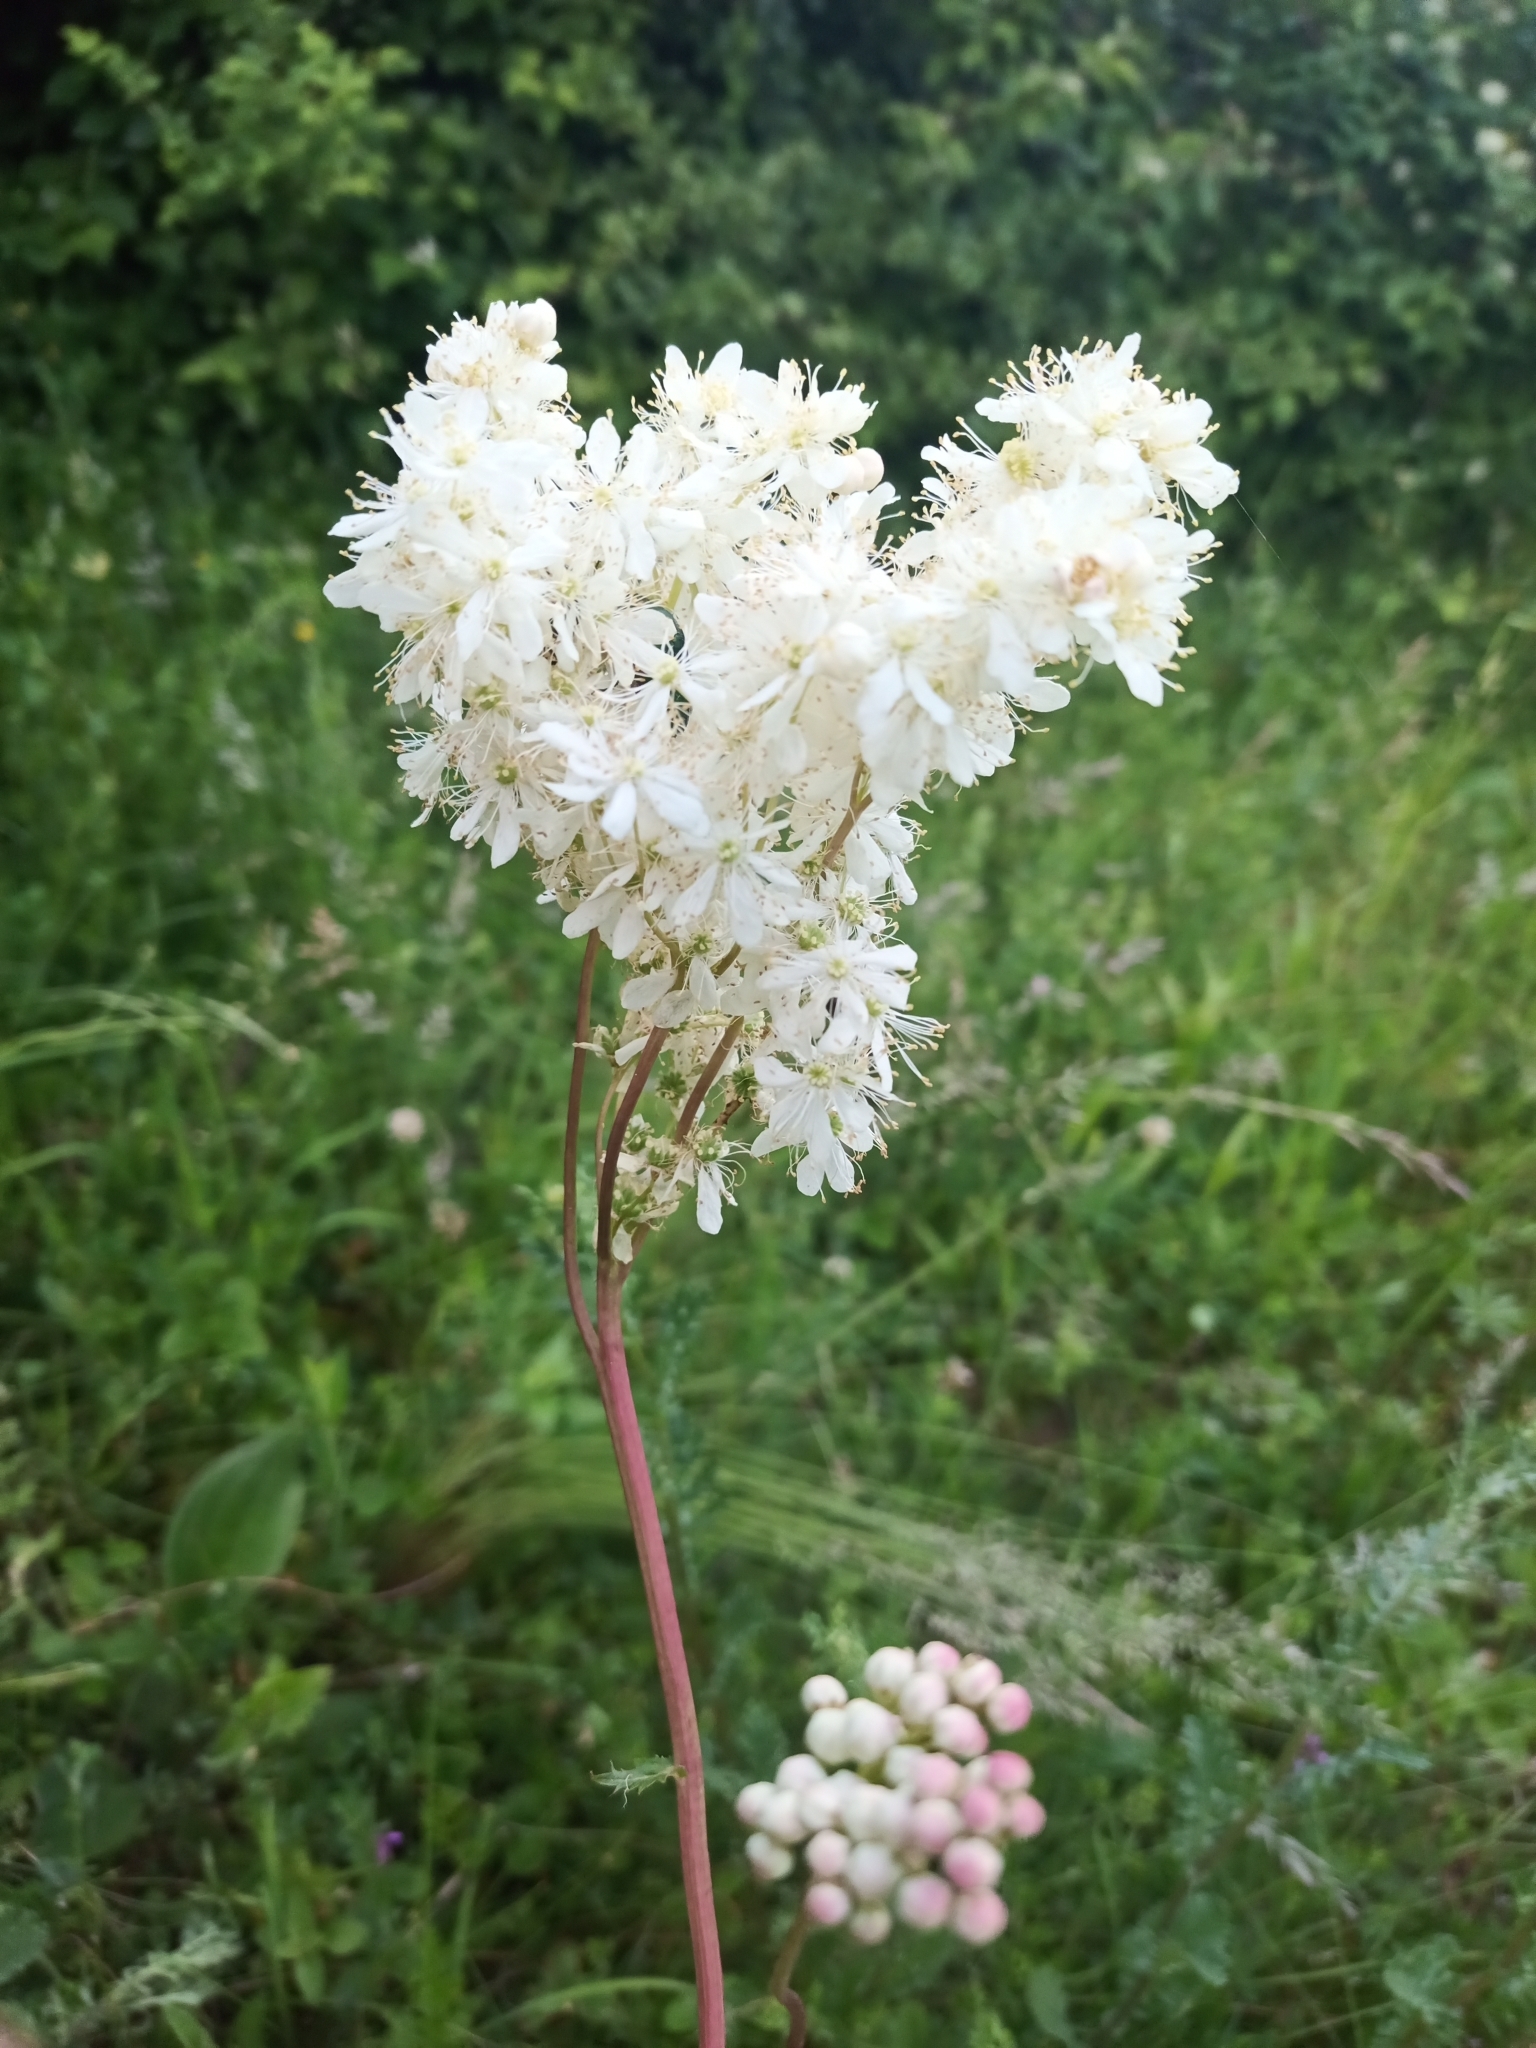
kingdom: Plantae
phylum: Tracheophyta
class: Magnoliopsida
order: Rosales
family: Rosaceae
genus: Filipendula
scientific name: Filipendula vulgaris
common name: Dropwort
